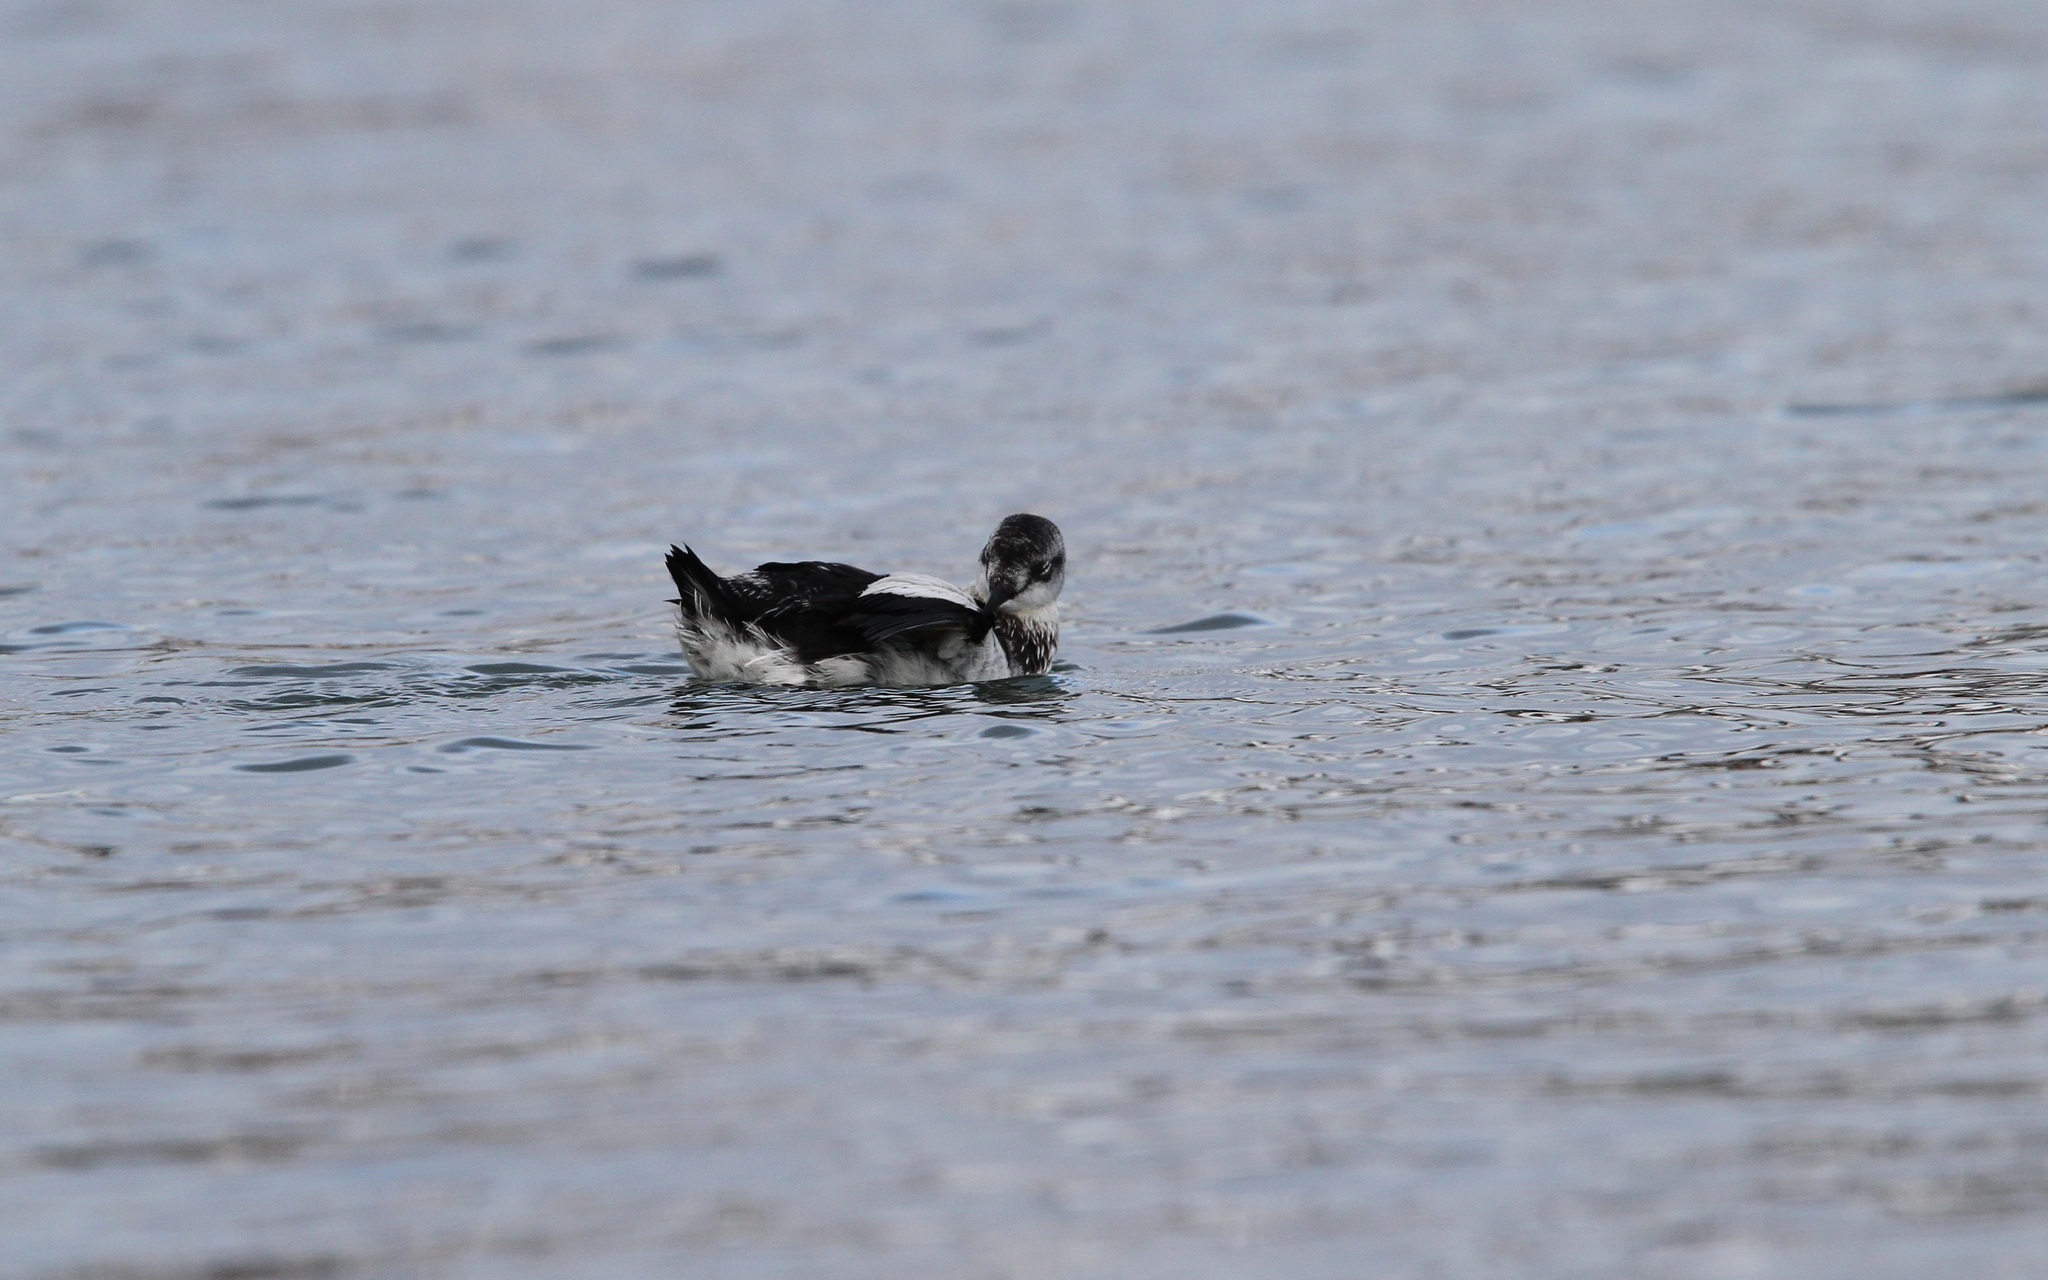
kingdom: Animalia
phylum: Chordata
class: Aves
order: Charadriiformes
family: Alcidae
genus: Cepphus
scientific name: Cepphus grylle
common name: Black guillemot
